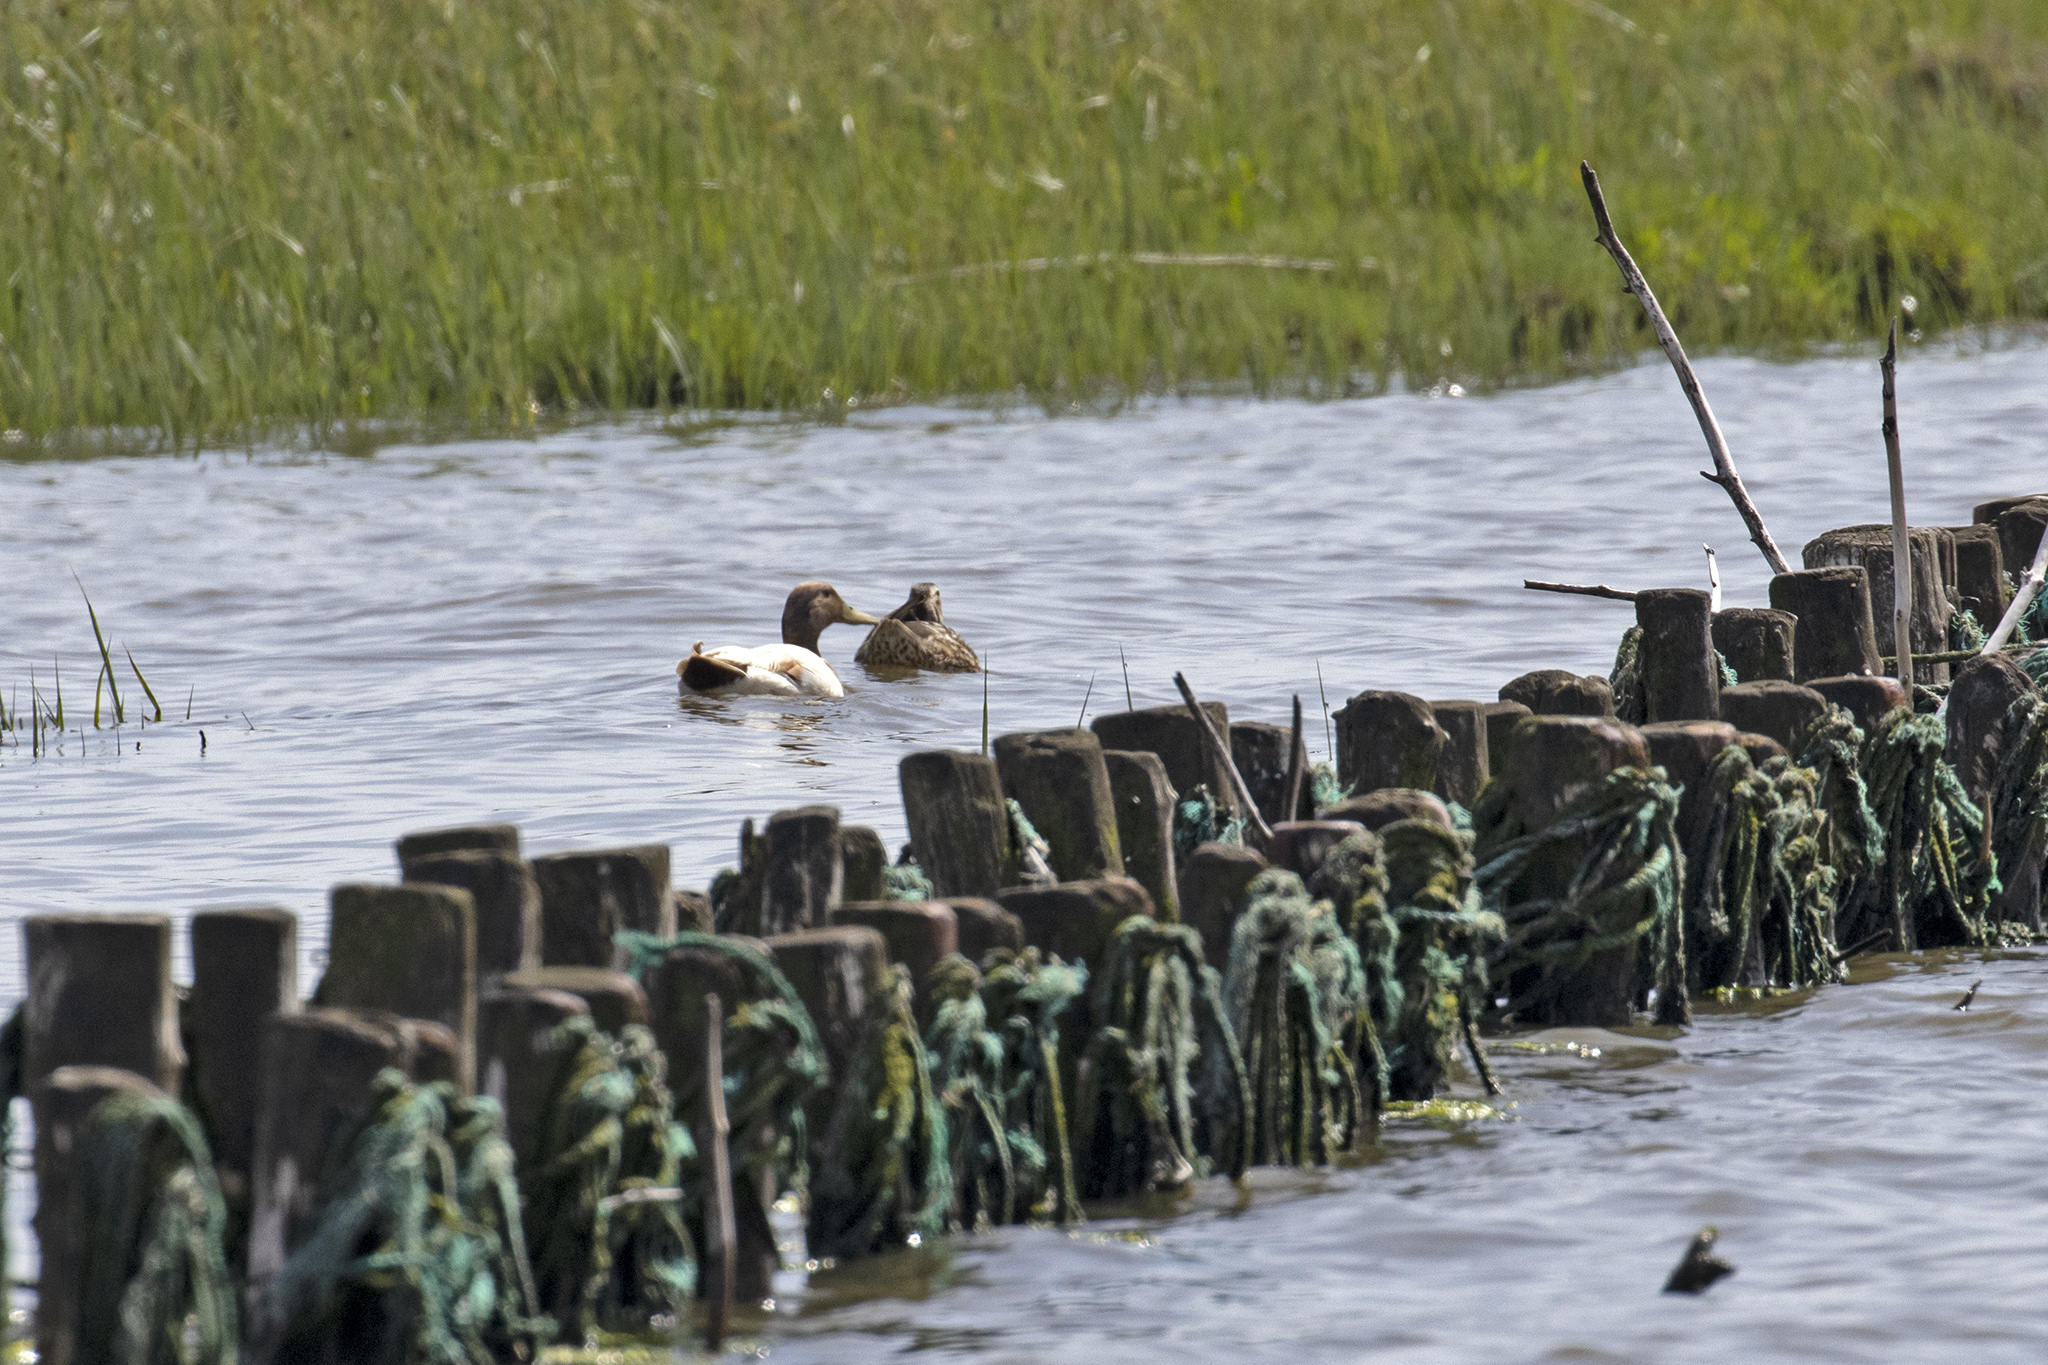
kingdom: Animalia
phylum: Chordata
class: Aves
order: Anseriformes
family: Anatidae
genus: Anas
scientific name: Anas platyrhynchos
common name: Mallard
